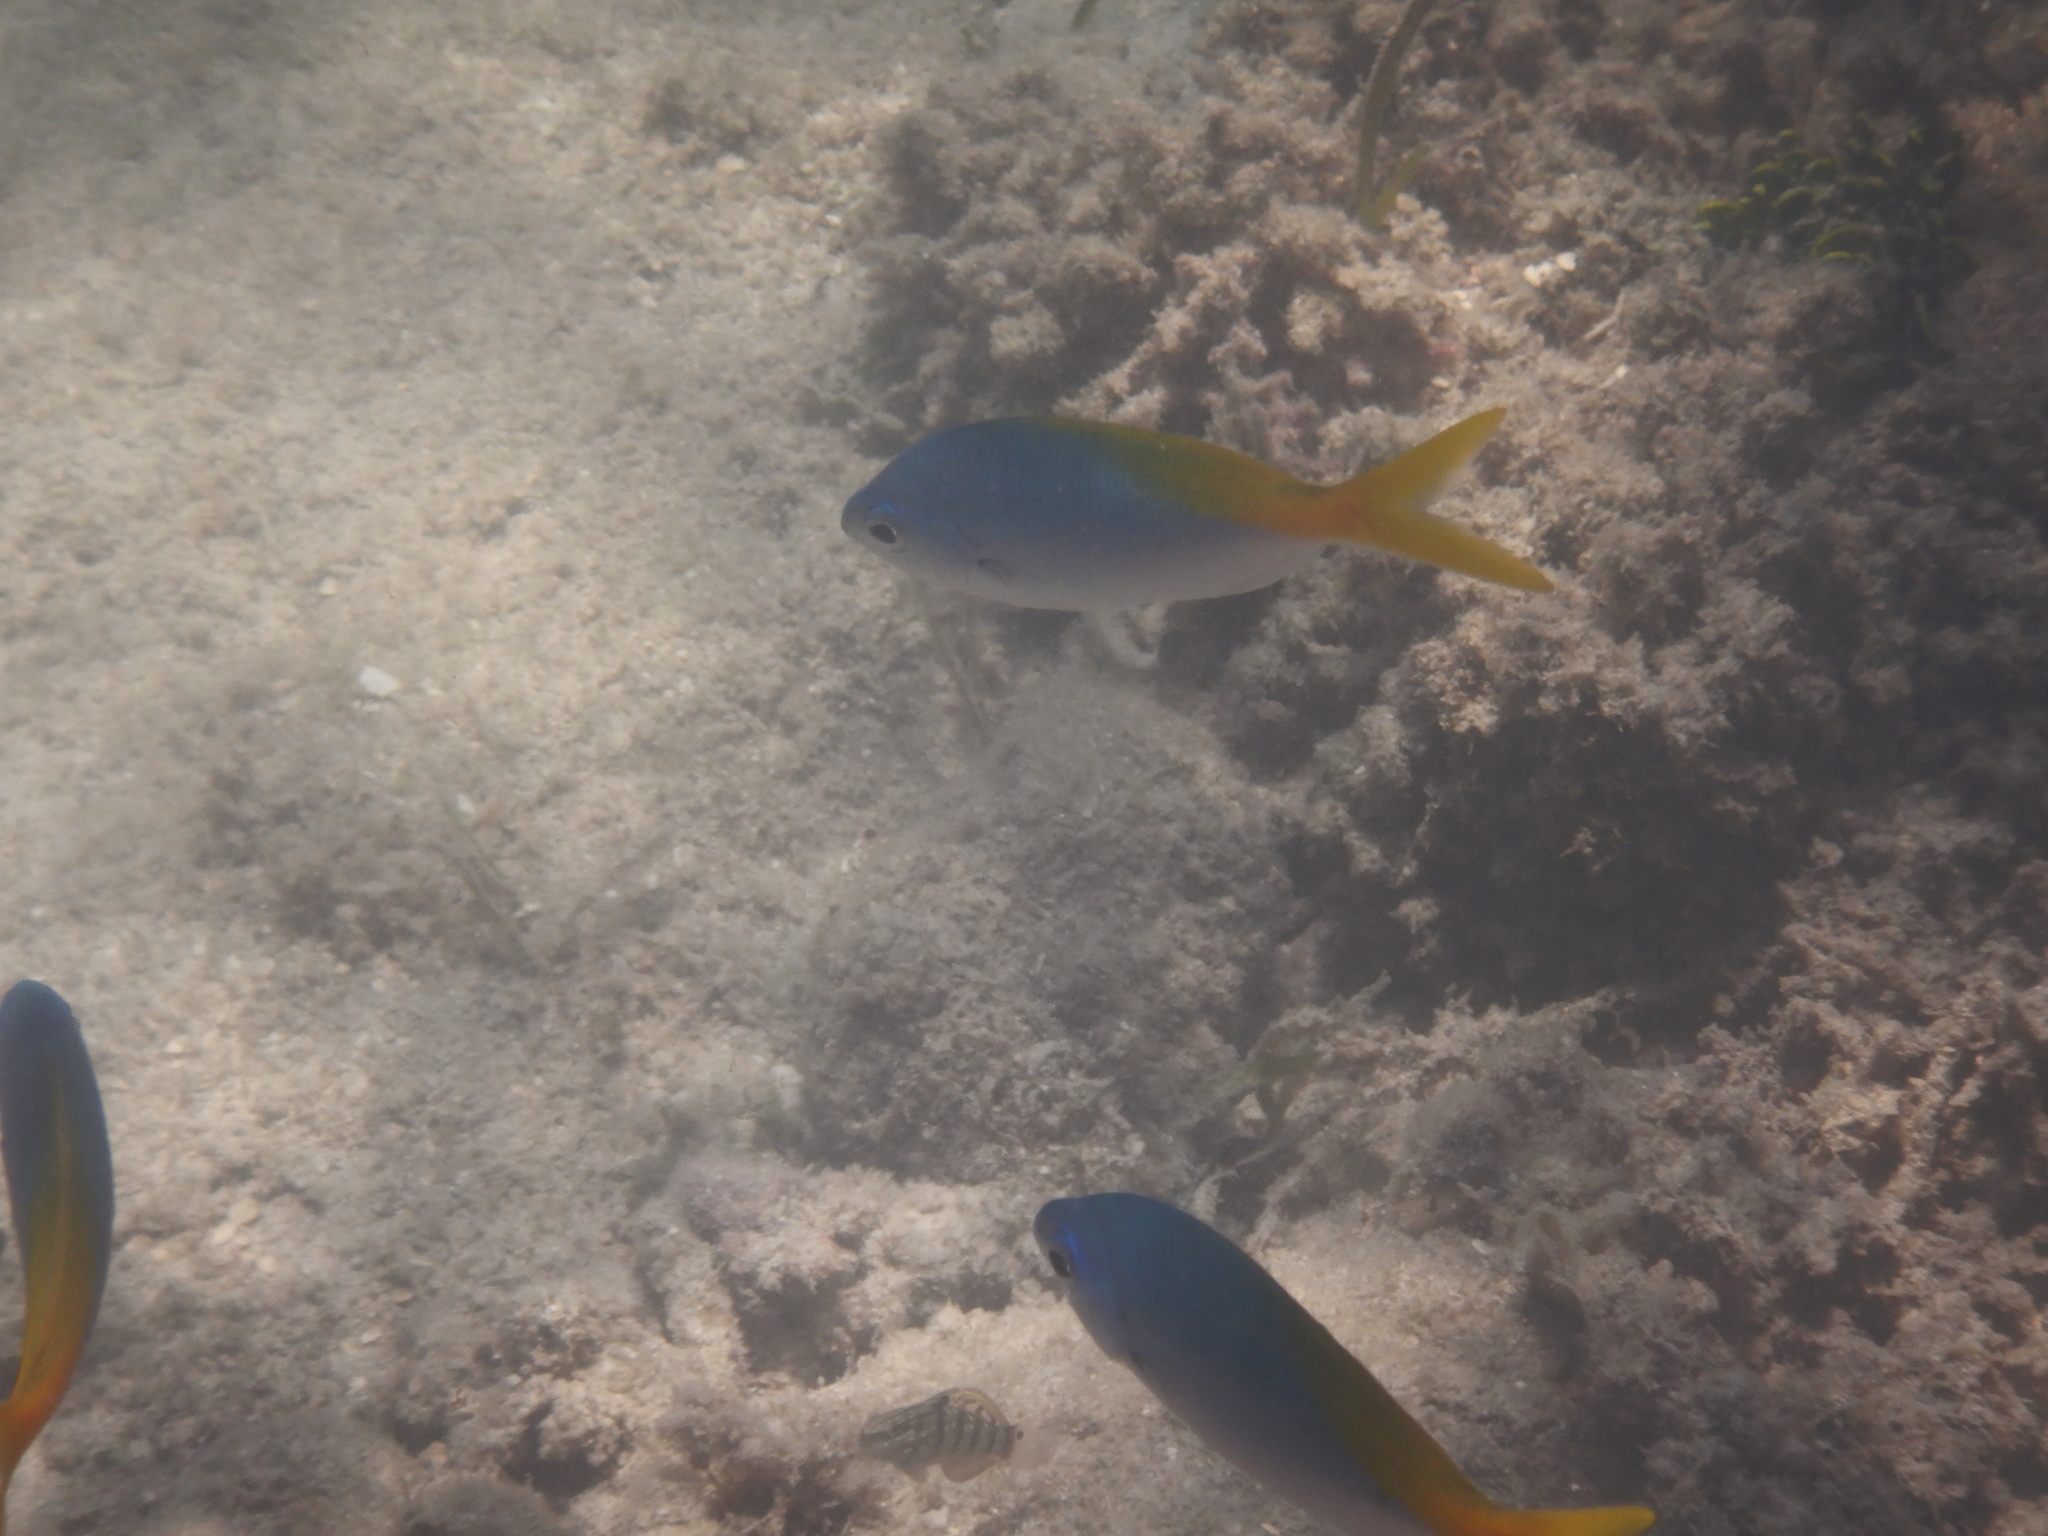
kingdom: Animalia
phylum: Chordata
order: Perciformes
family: Caesionidae
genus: Caesio
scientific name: Caesio cuning
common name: Red-bellied fusilier
